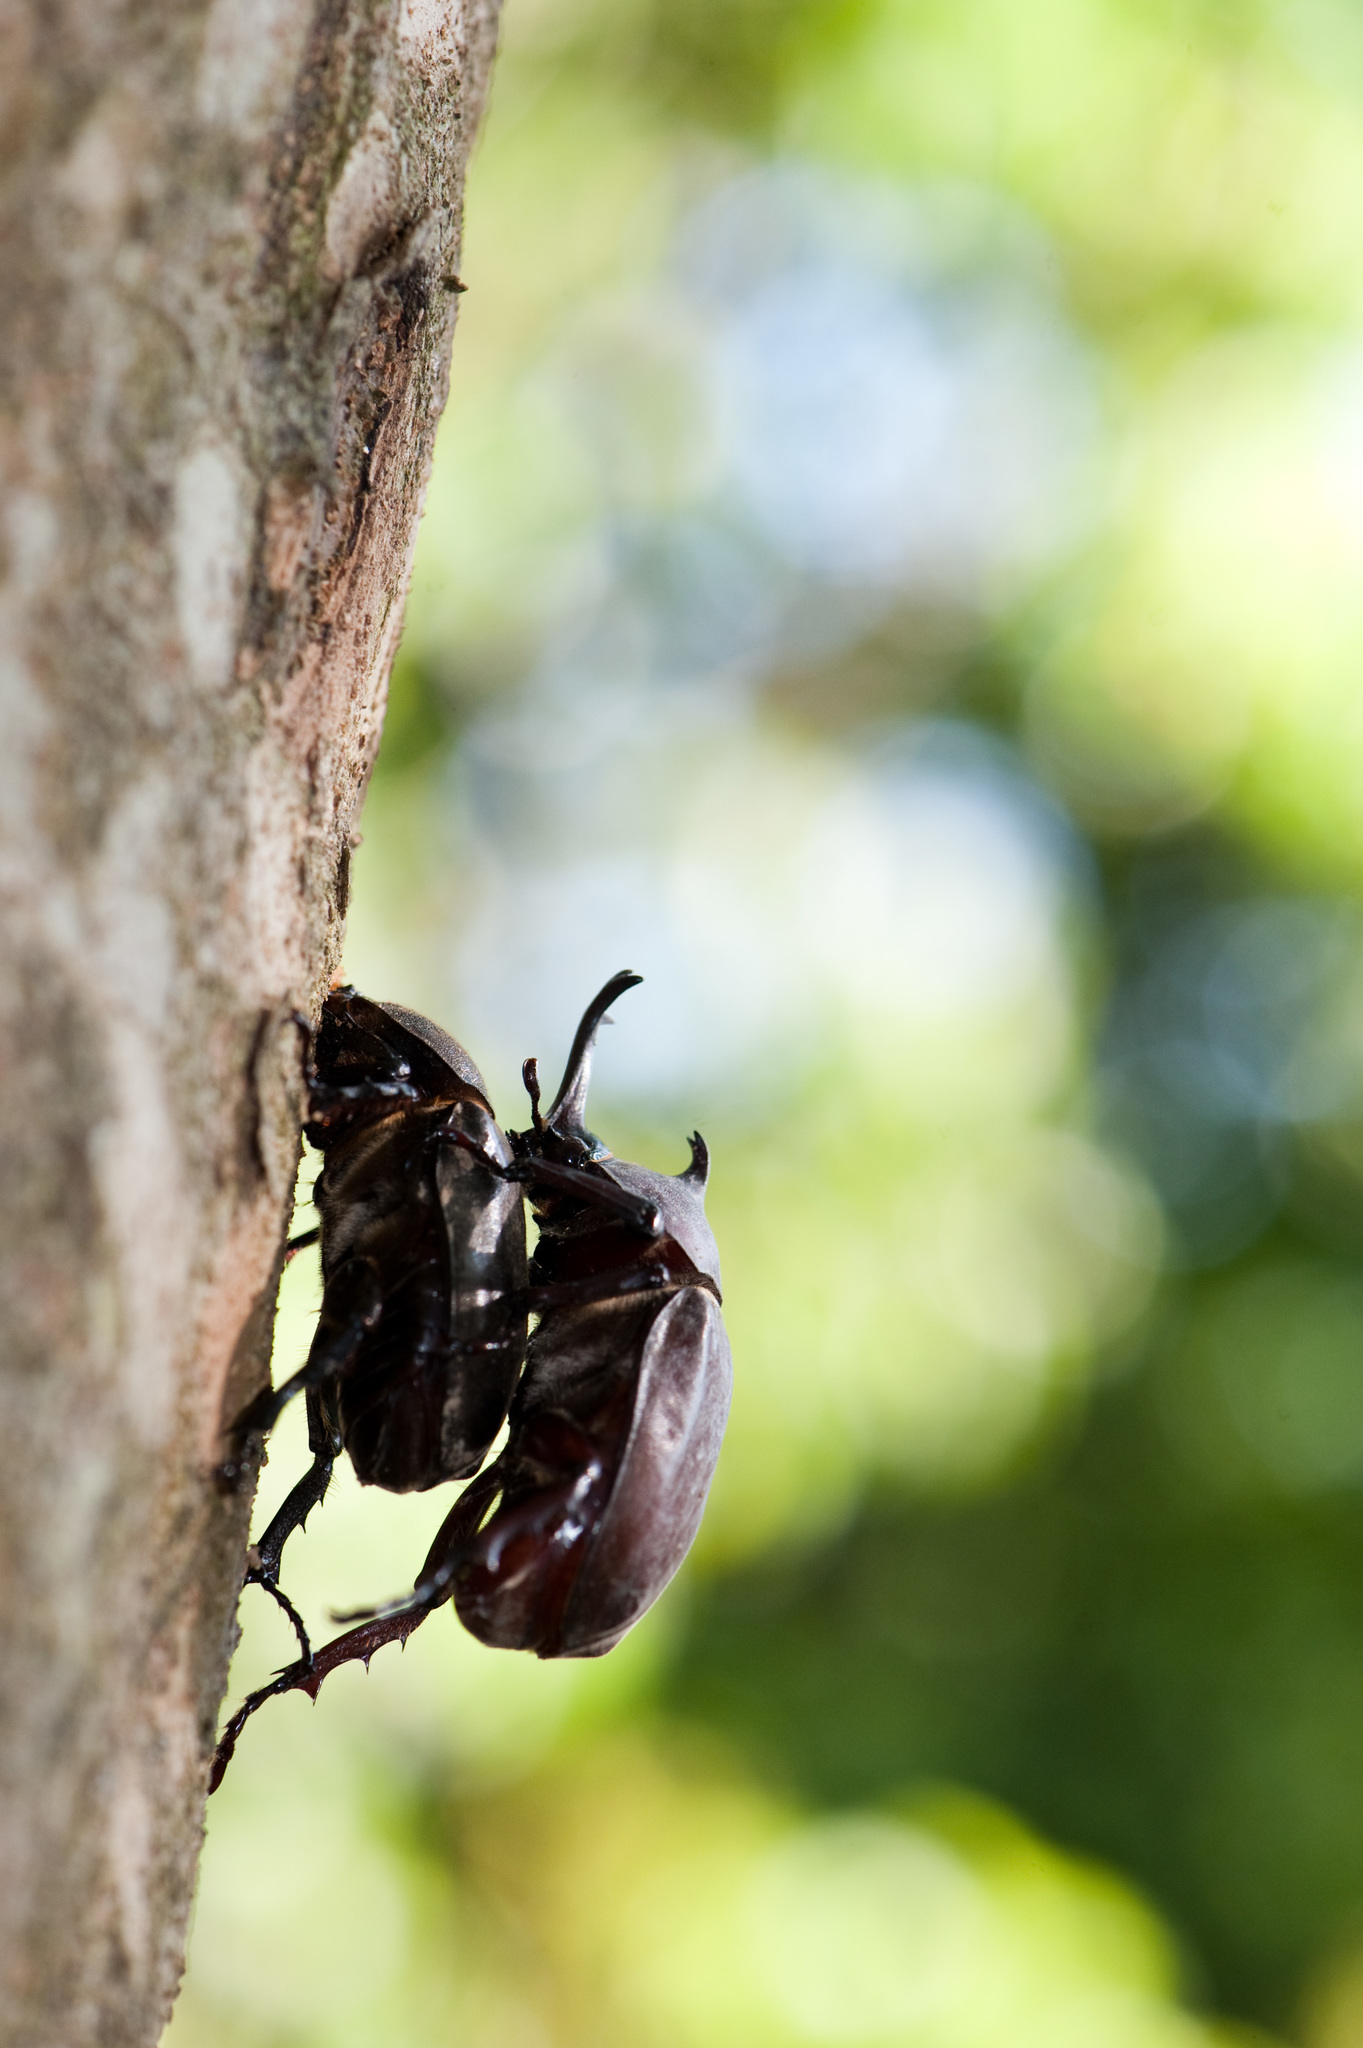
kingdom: Animalia
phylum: Arthropoda
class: Insecta
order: Coleoptera
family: Scarabaeidae
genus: Trypoxylus
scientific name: Trypoxylus dichotomus
